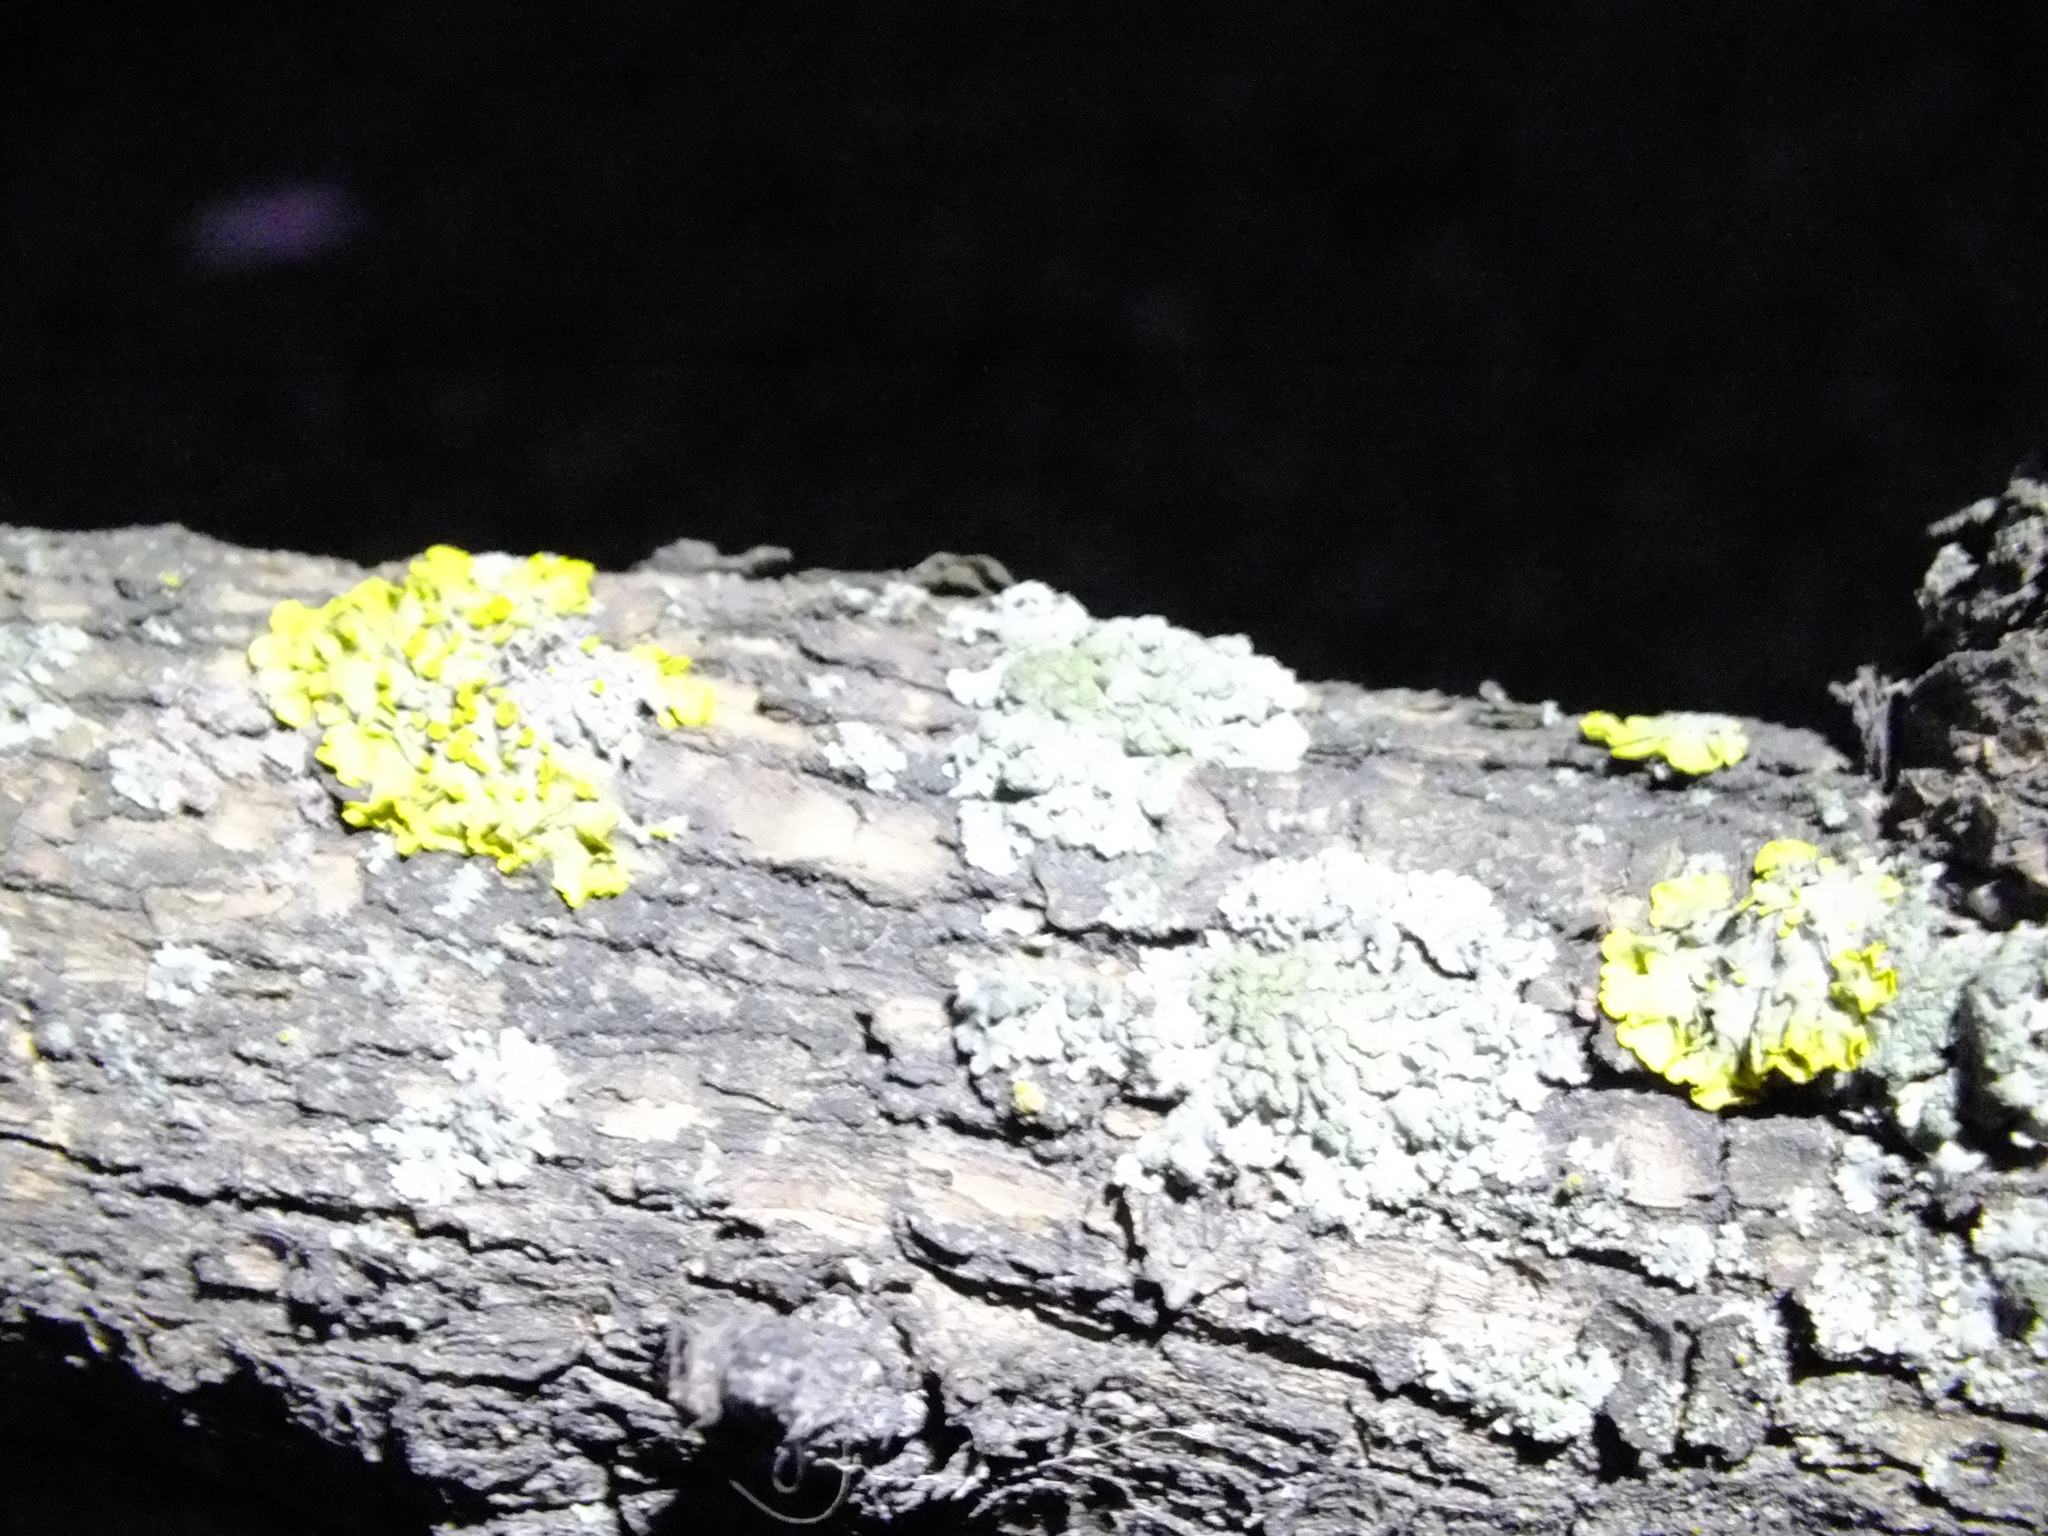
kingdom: Fungi
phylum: Ascomycota
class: Lecanoromycetes
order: Teloschistales
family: Teloschistaceae
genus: Xanthoria
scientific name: Xanthoria parietina
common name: Common orange lichen
